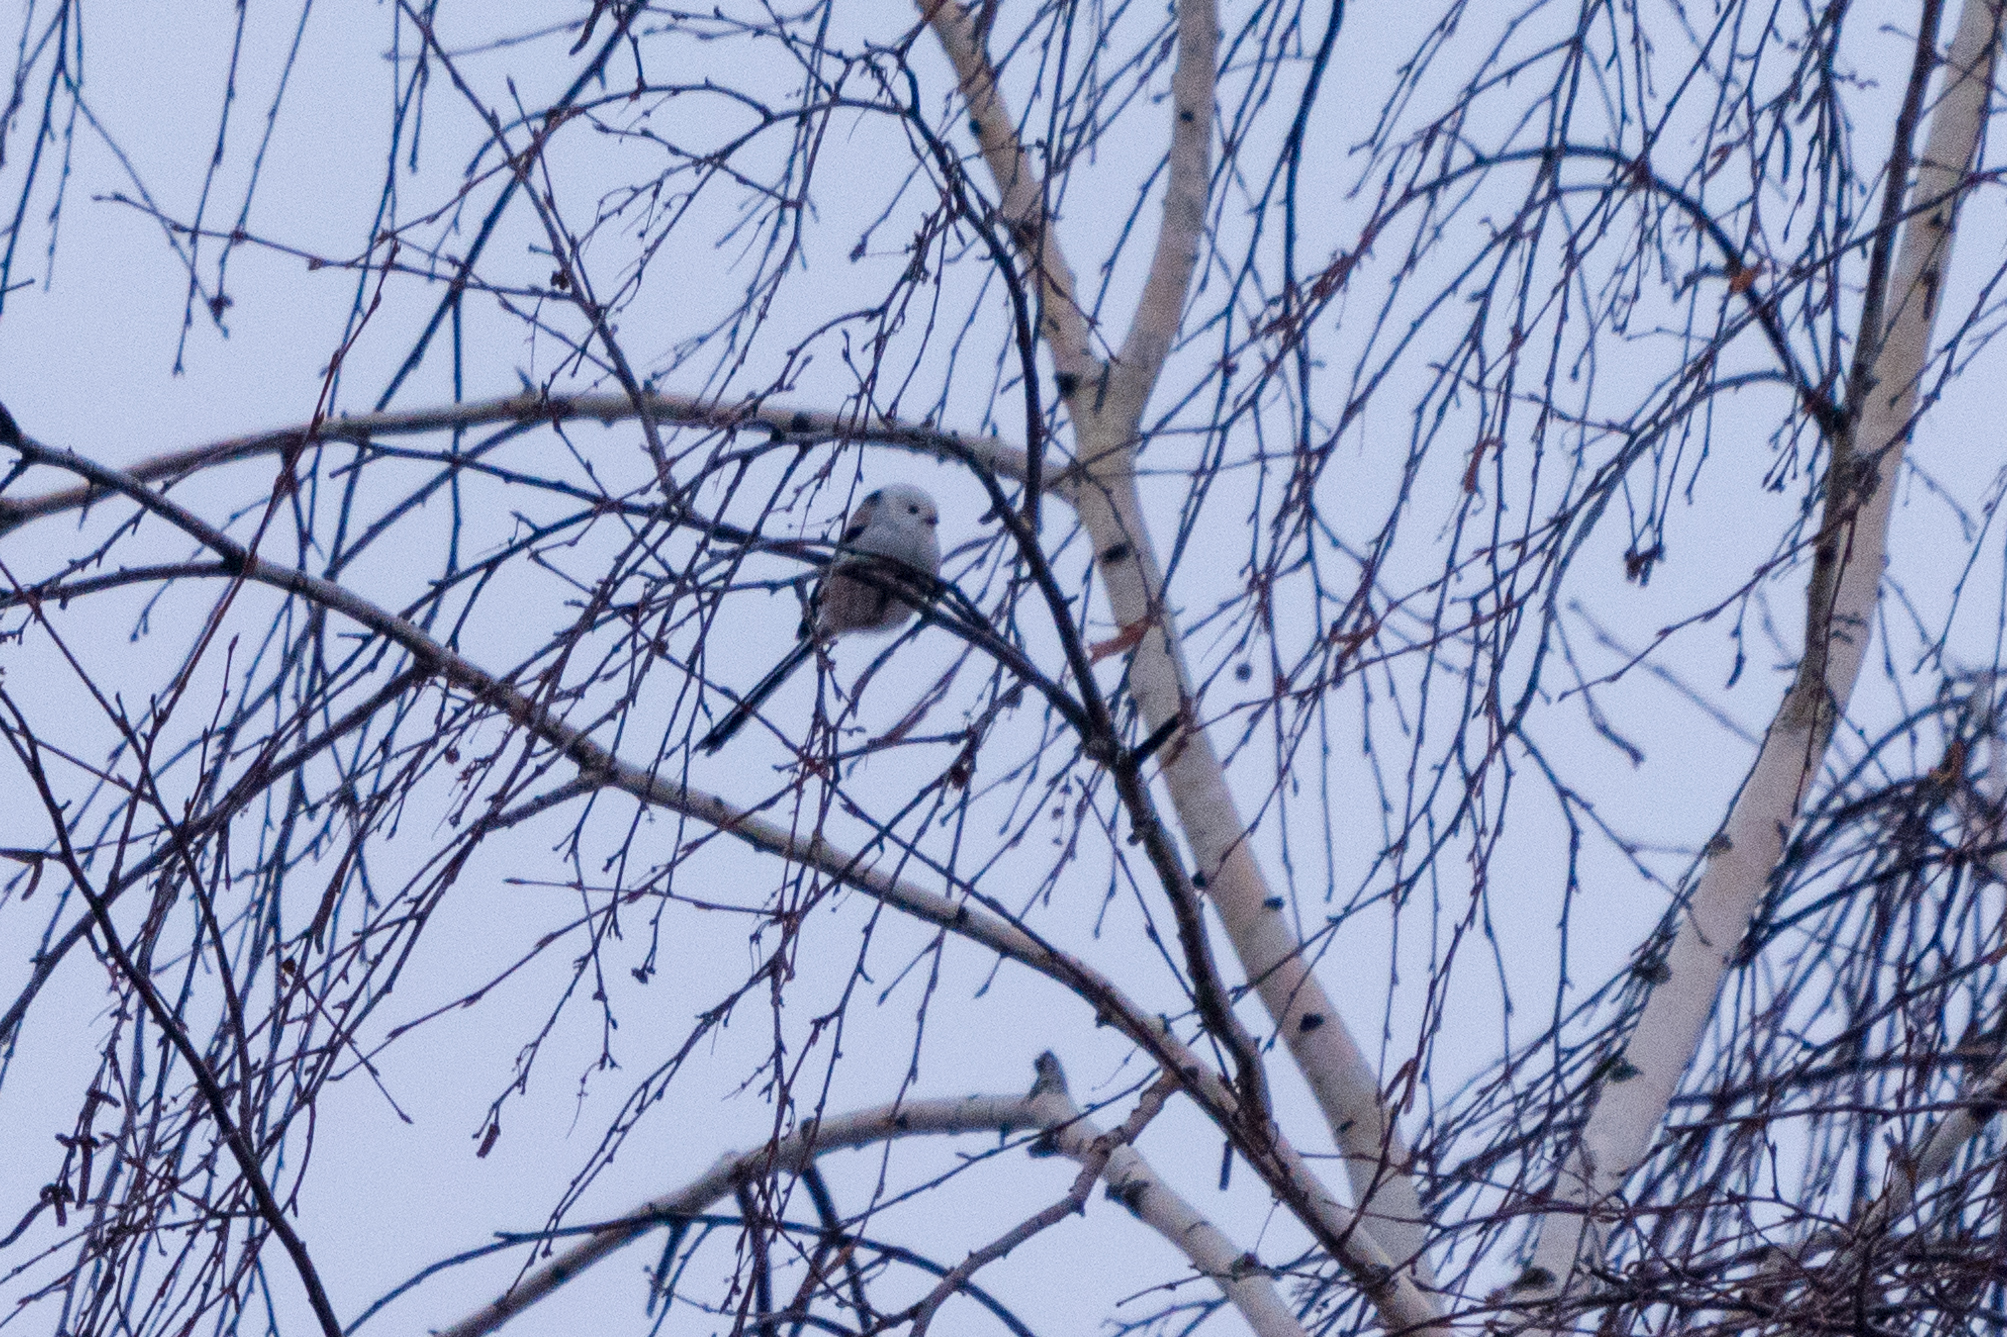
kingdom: Animalia
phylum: Chordata
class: Aves
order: Passeriformes
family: Aegithalidae
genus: Aegithalos
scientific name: Aegithalos caudatus
